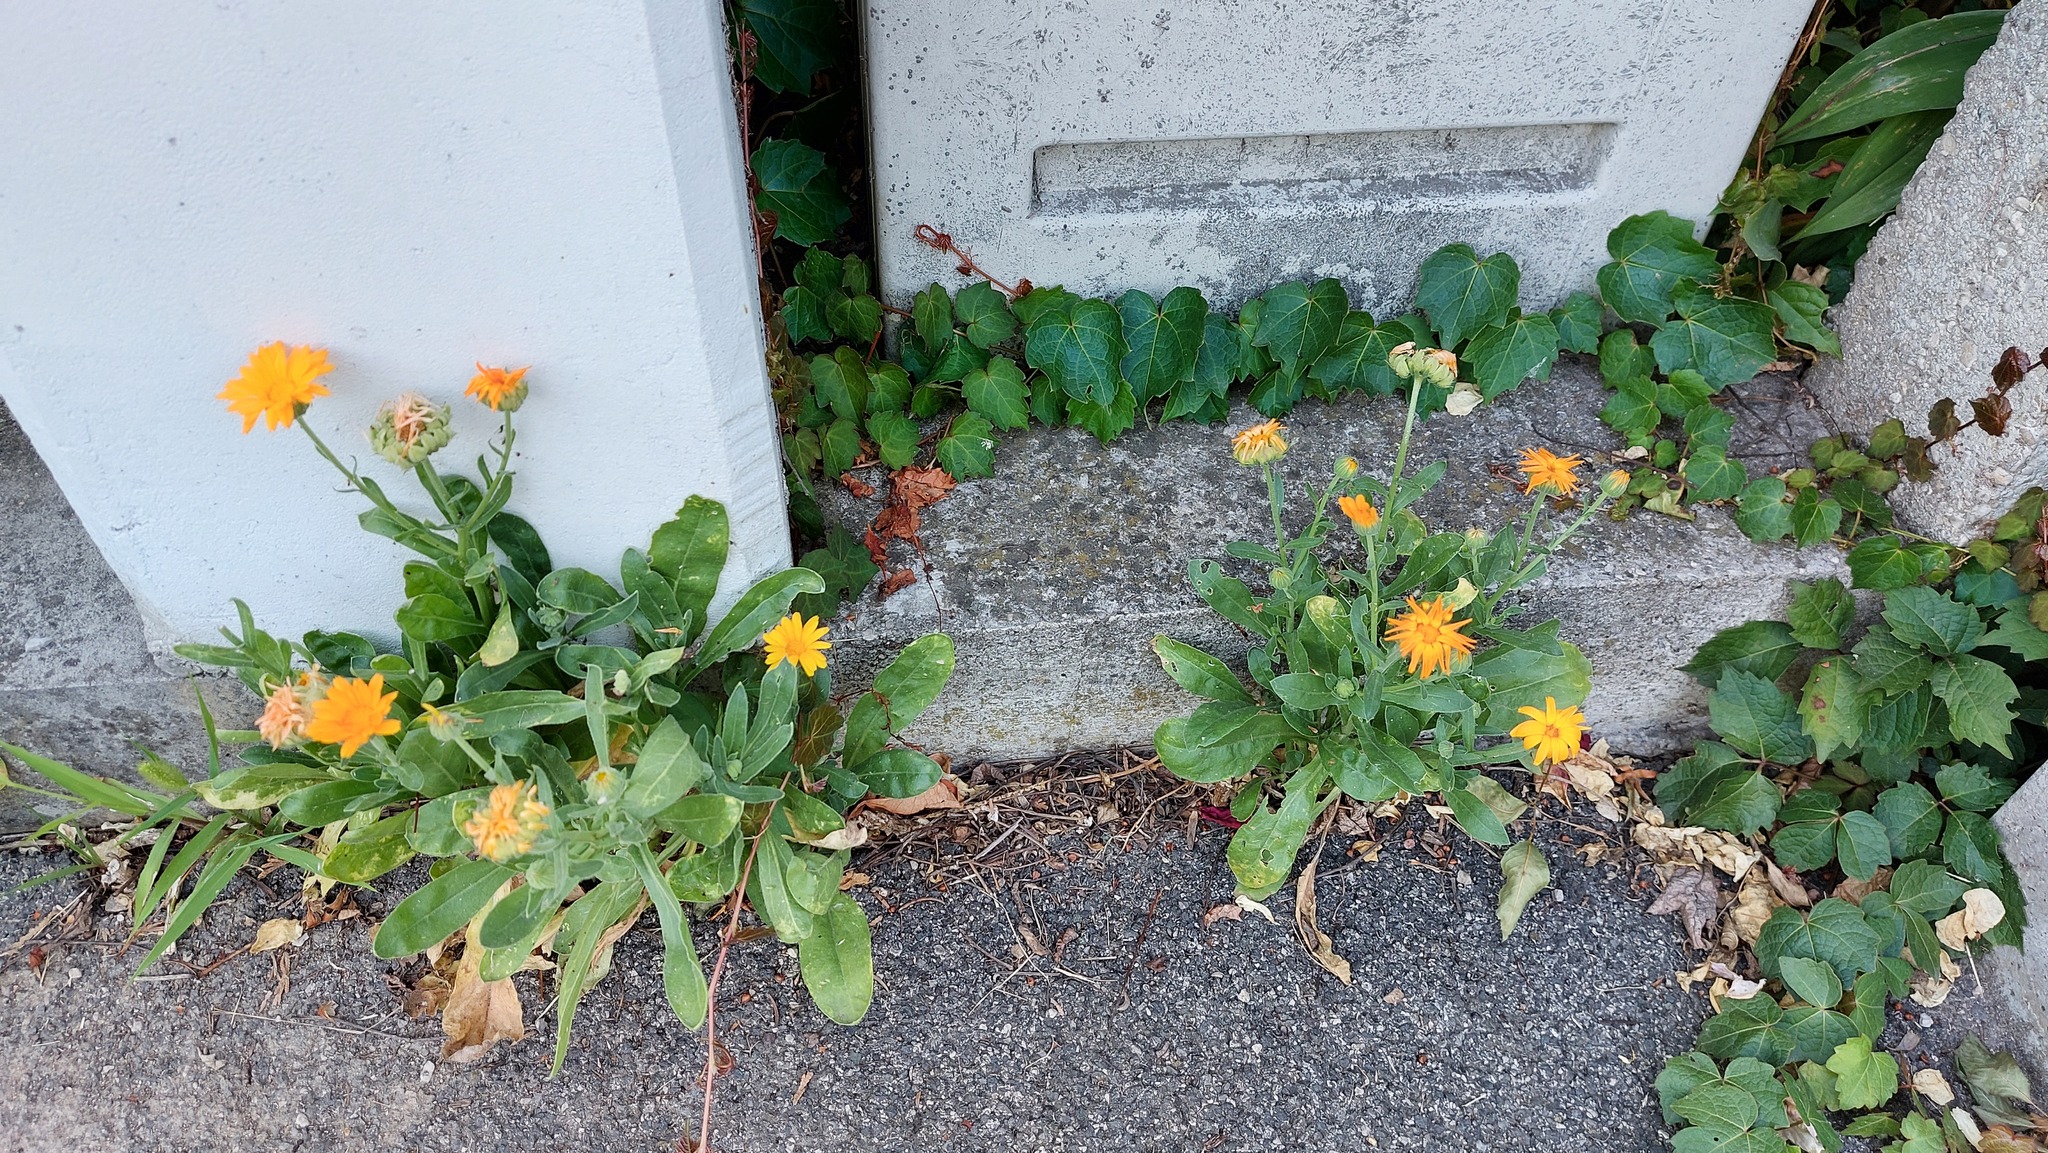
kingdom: Plantae
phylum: Tracheophyta
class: Magnoliopsida
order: Asterales
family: Asteraceae
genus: Calendula
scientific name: Calendula officinalis
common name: Pot marigold
